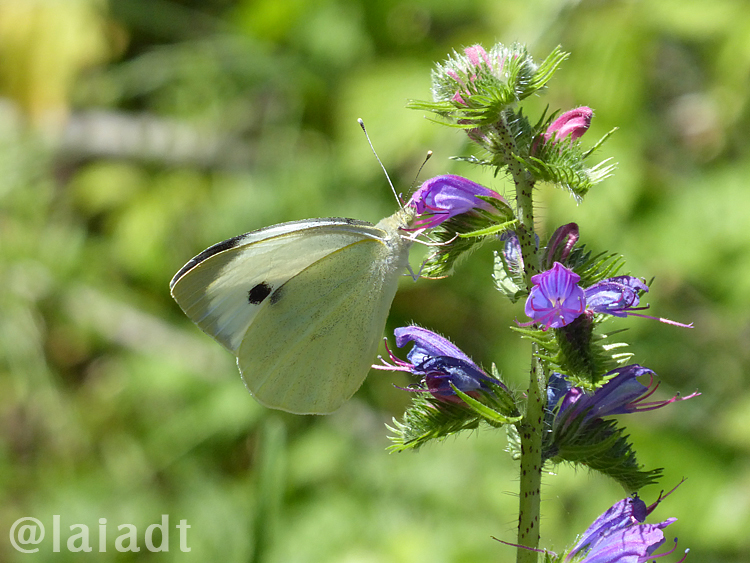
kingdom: Animalia
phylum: Arthropoda
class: Insecta
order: Lepidoptera
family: Pieridae
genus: Pieris
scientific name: Pieris brassicae
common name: Large white
